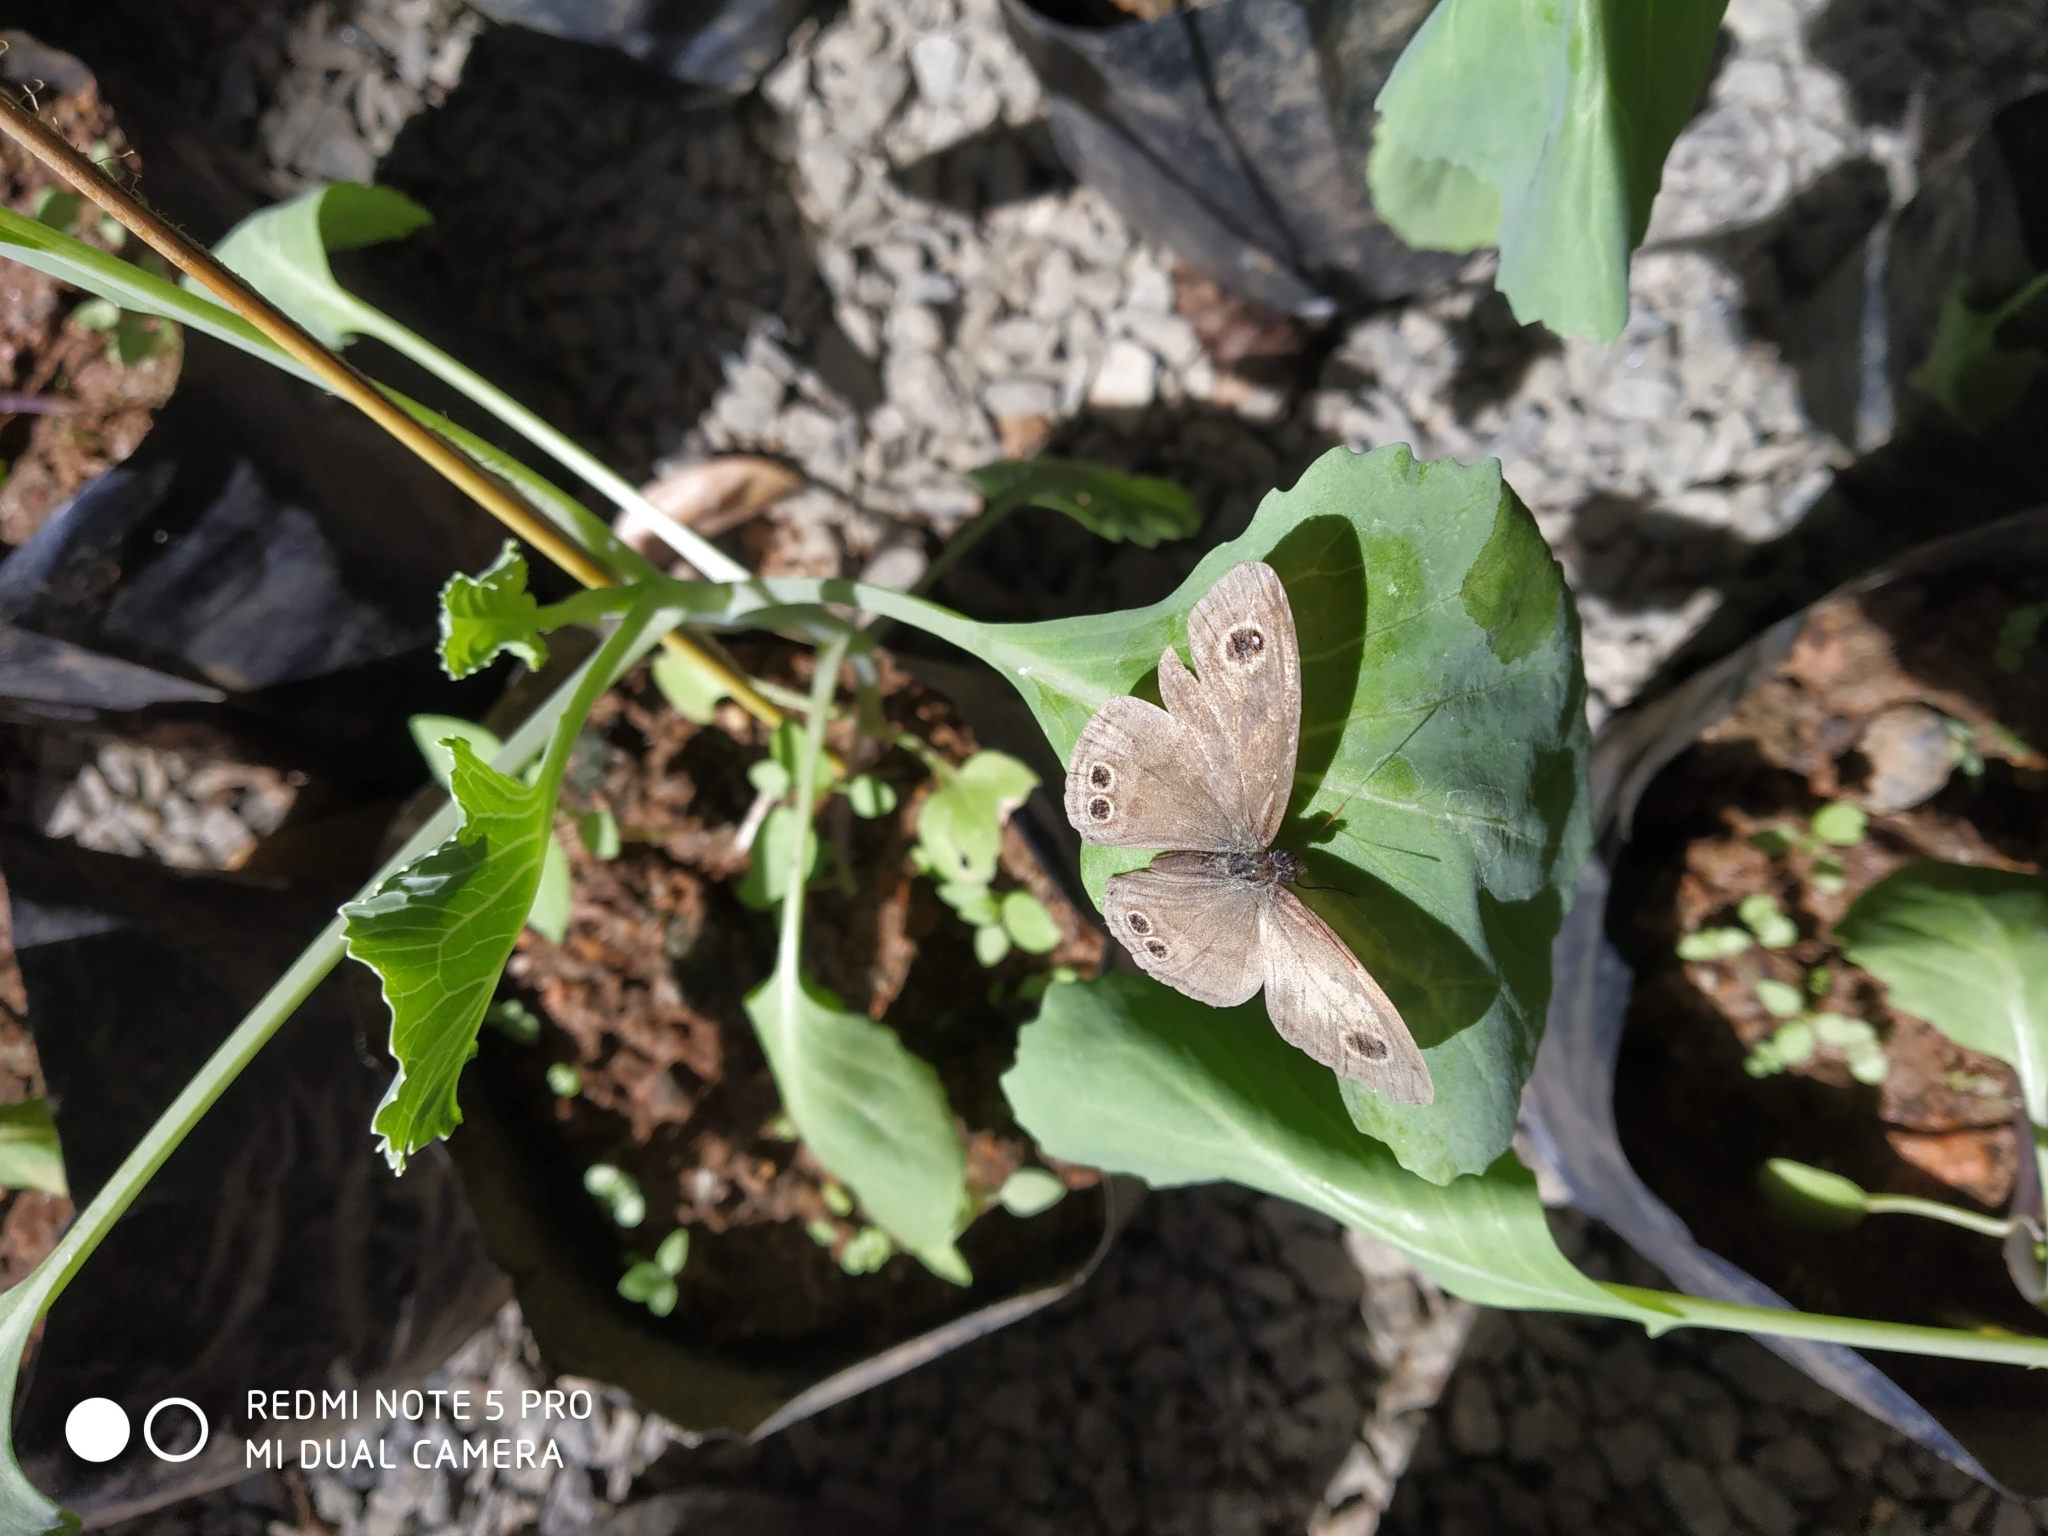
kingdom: Animalia
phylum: Arthropoda
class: Insecta
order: Lepidoptera
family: Nymphalidae
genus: Ypthima
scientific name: Ypthima baldus
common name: Common five-ring
